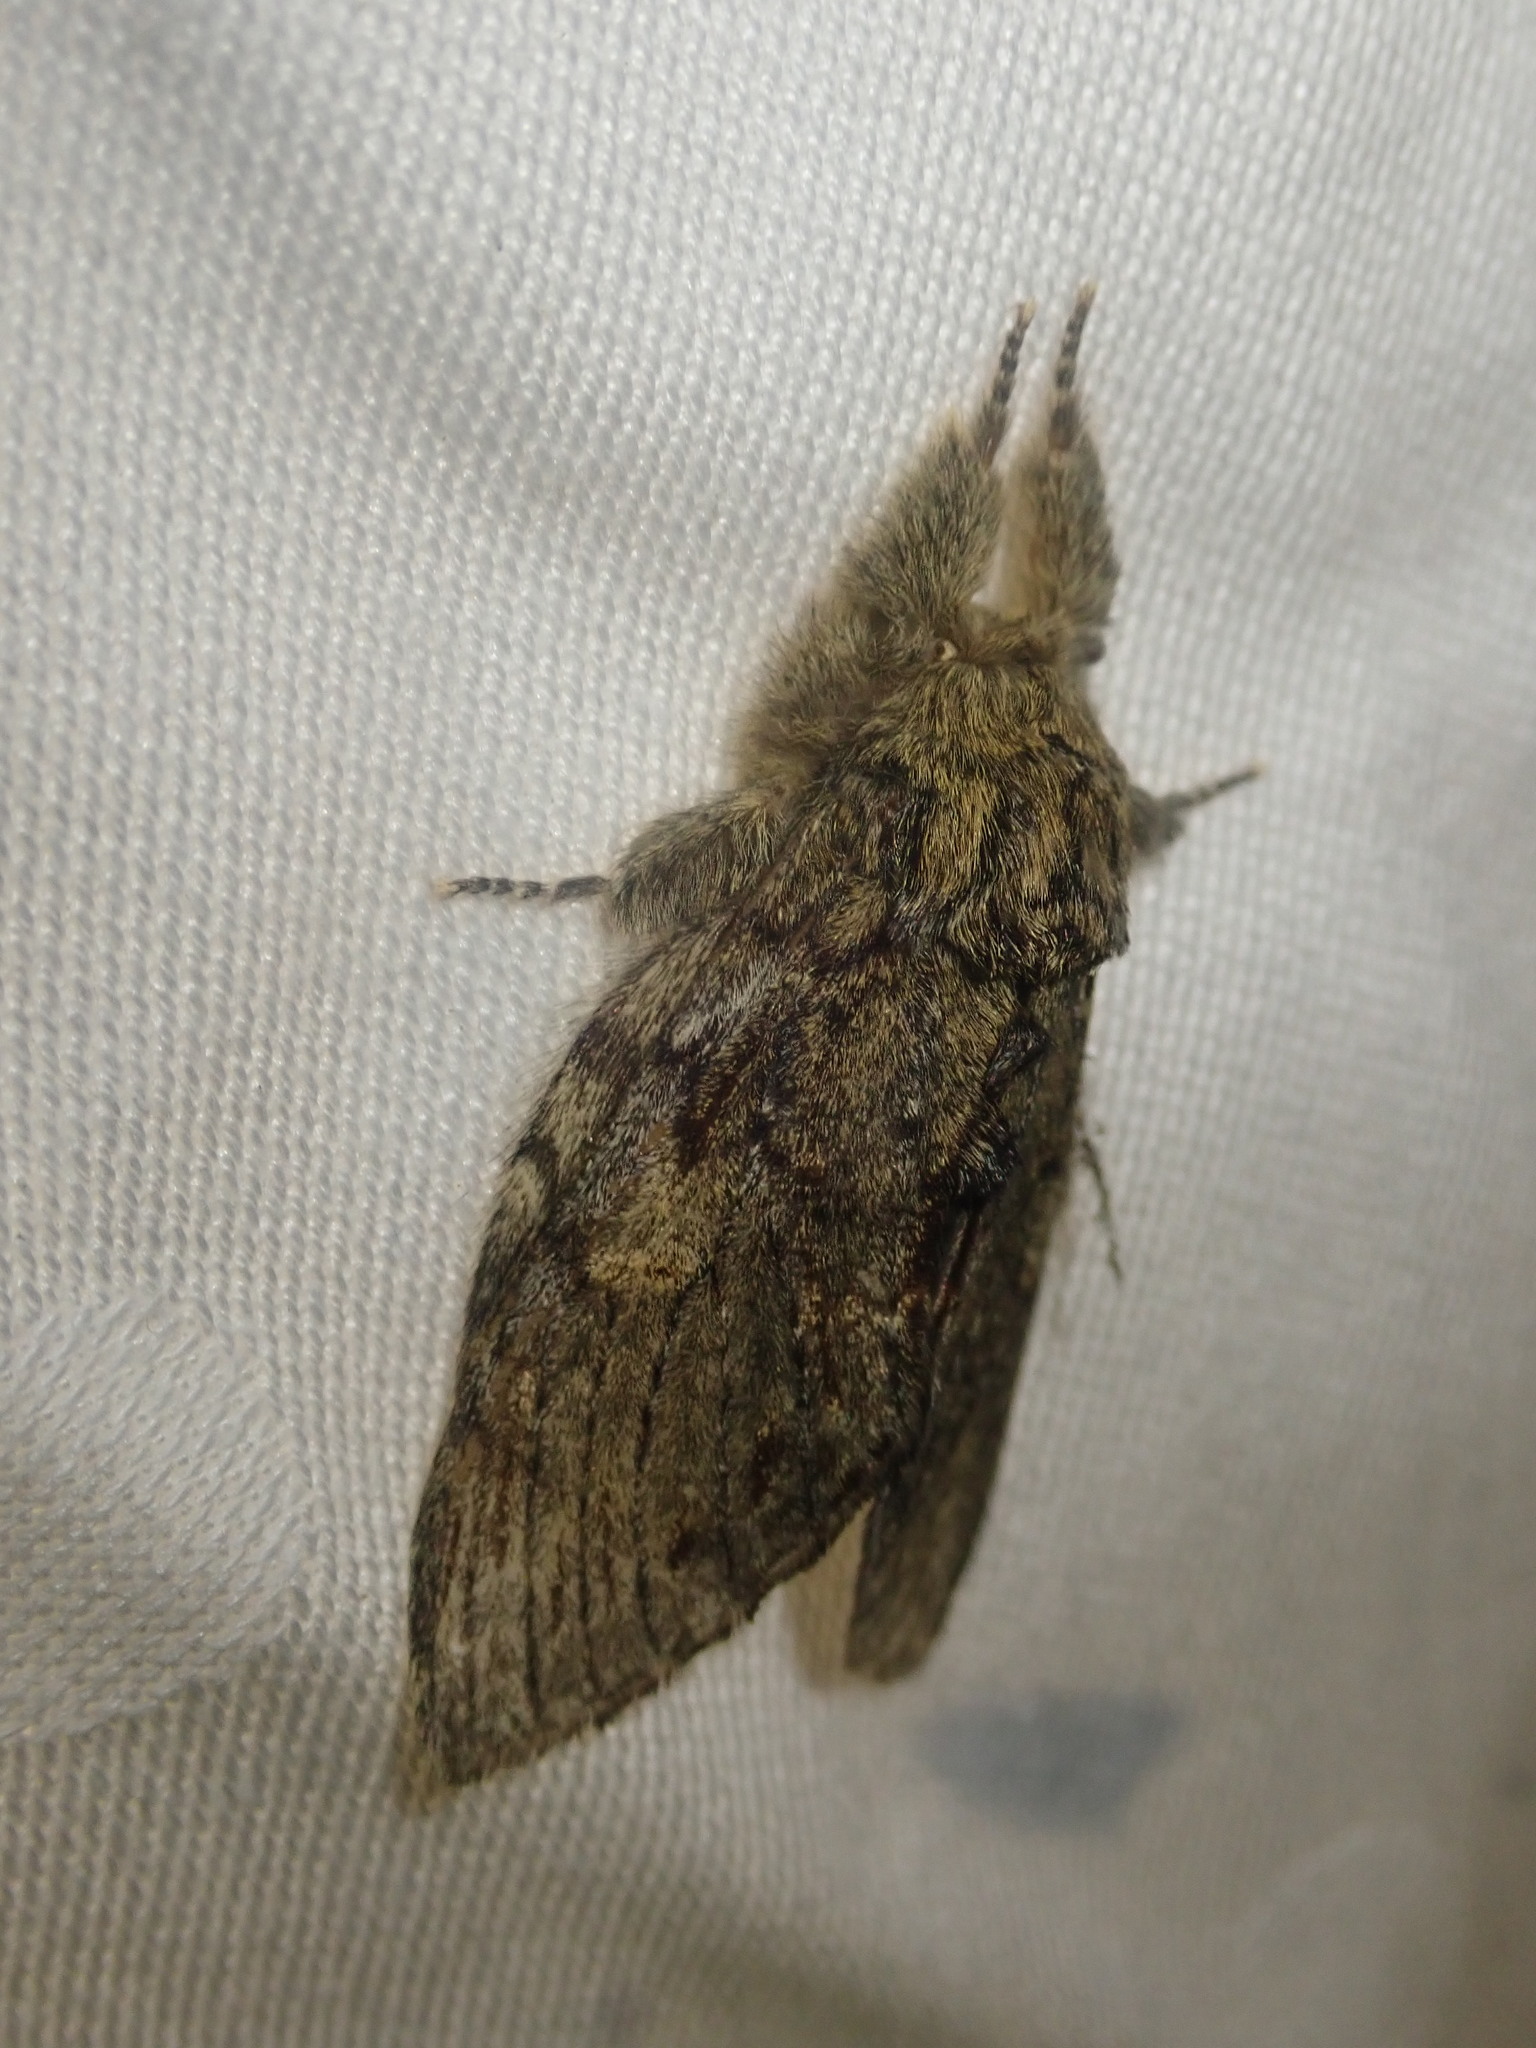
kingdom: Animalia
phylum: Arthropoda
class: Insecta
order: Lepidoptera
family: Notodontidae
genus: Peridea
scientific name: Peridea anceps
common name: Great prominent
